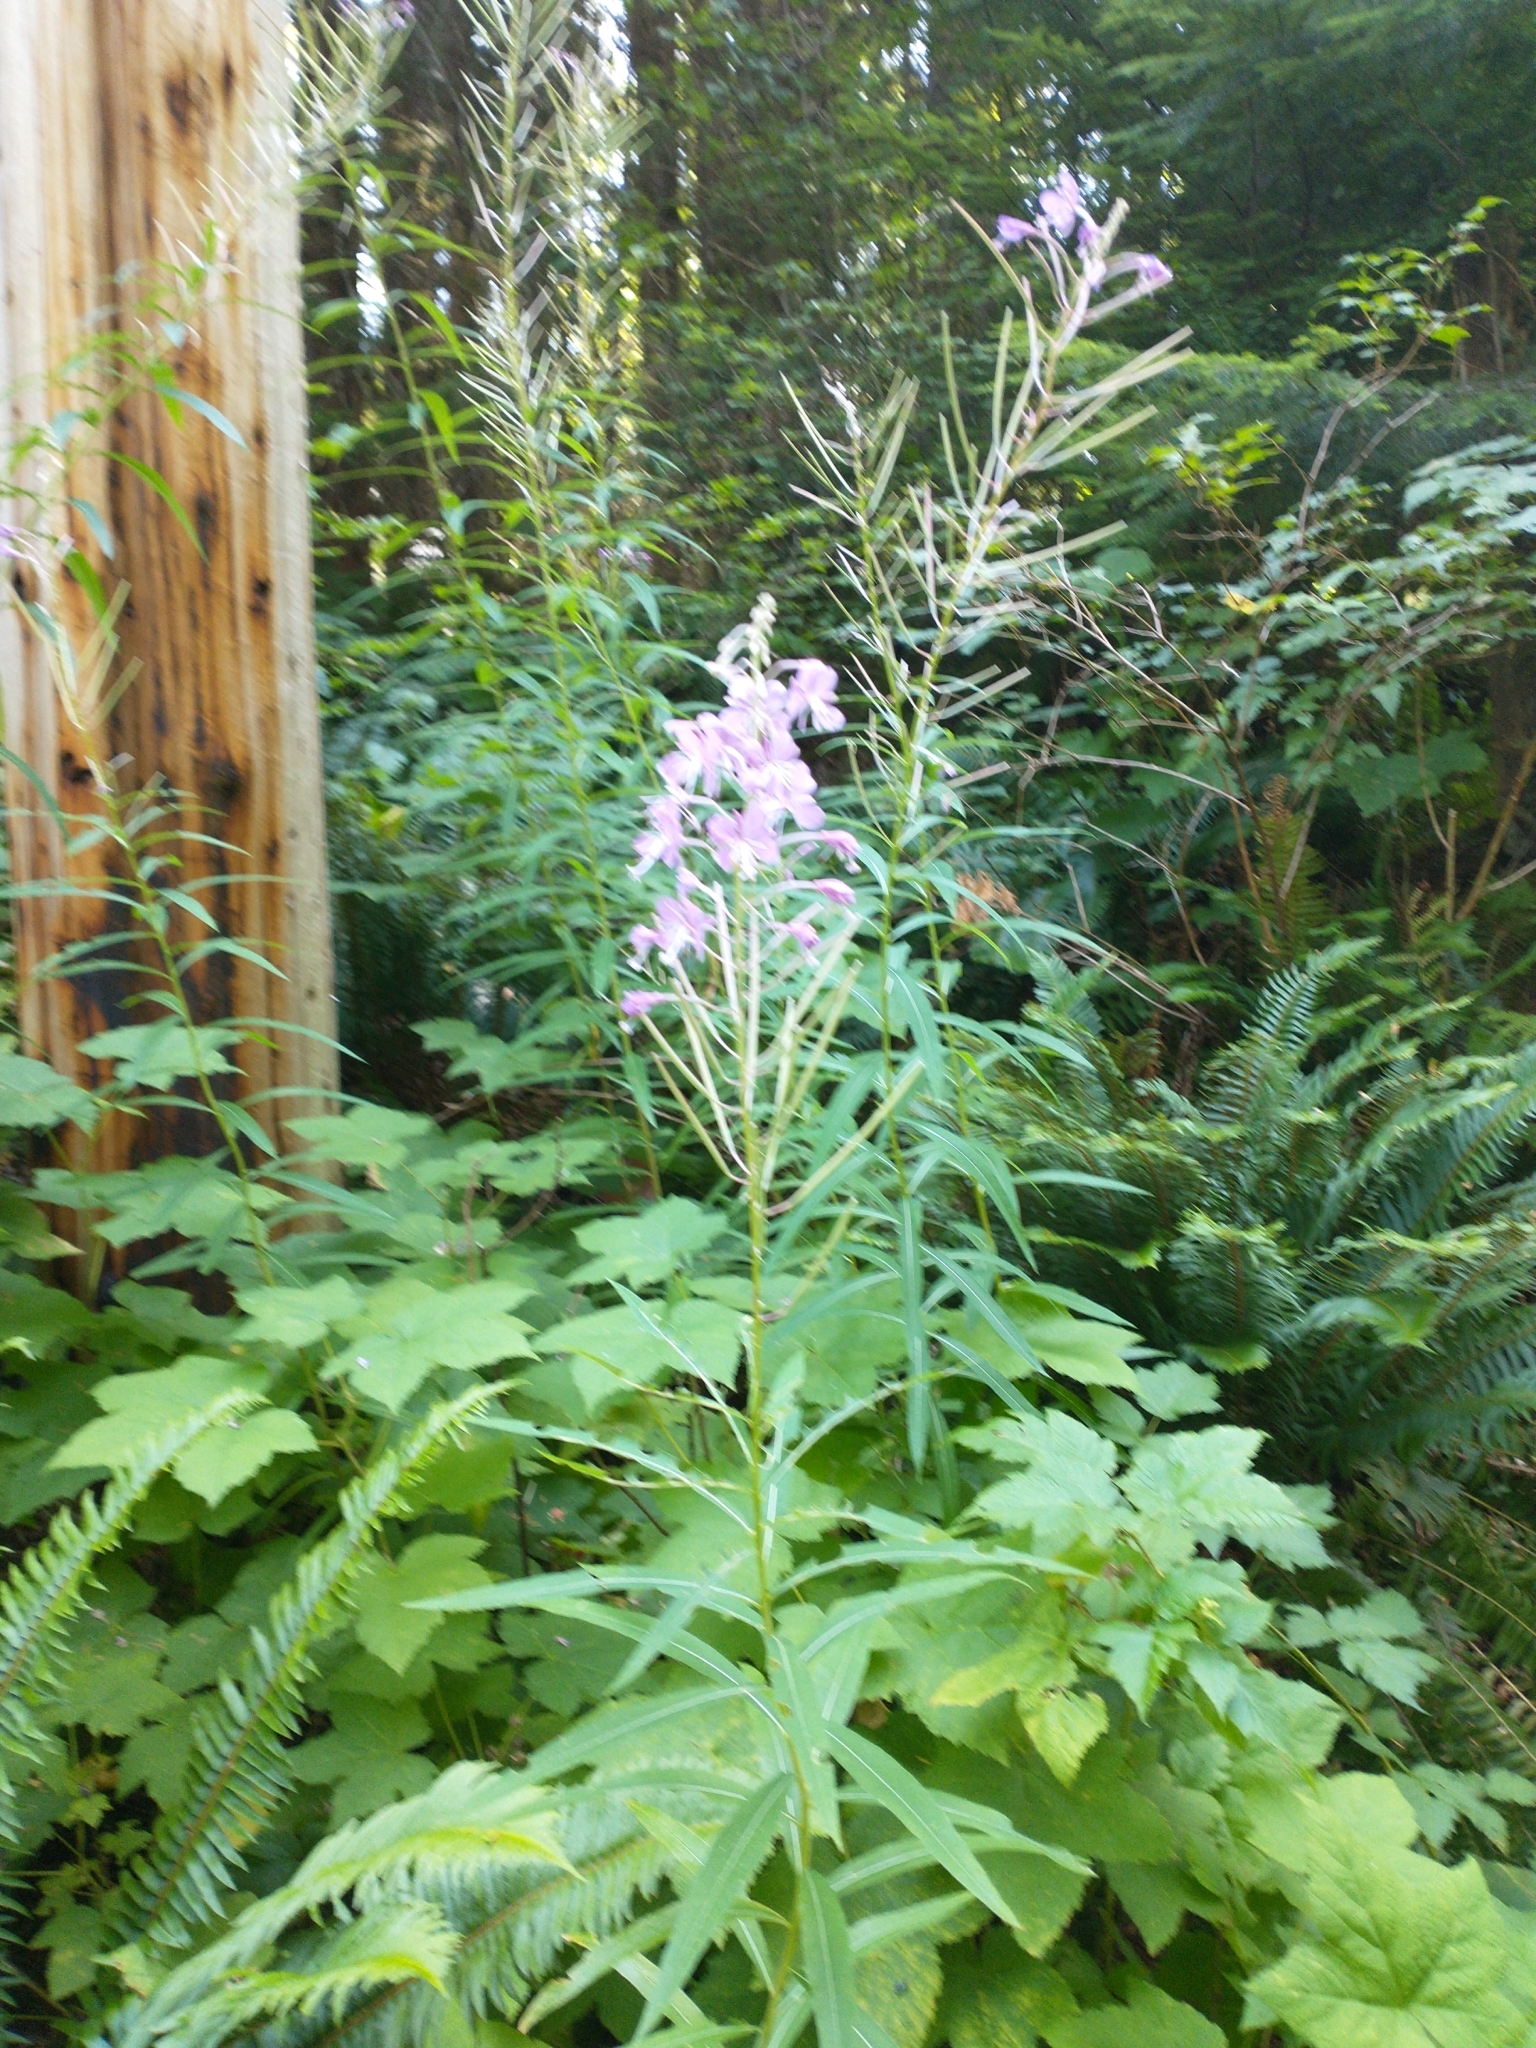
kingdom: Plantae
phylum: Tracheophyta
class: Magnoliopsida
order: Myrtales
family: Onagraceae
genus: Chamaenerion
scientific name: Chamaenerion angustifolium
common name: Fireweed
